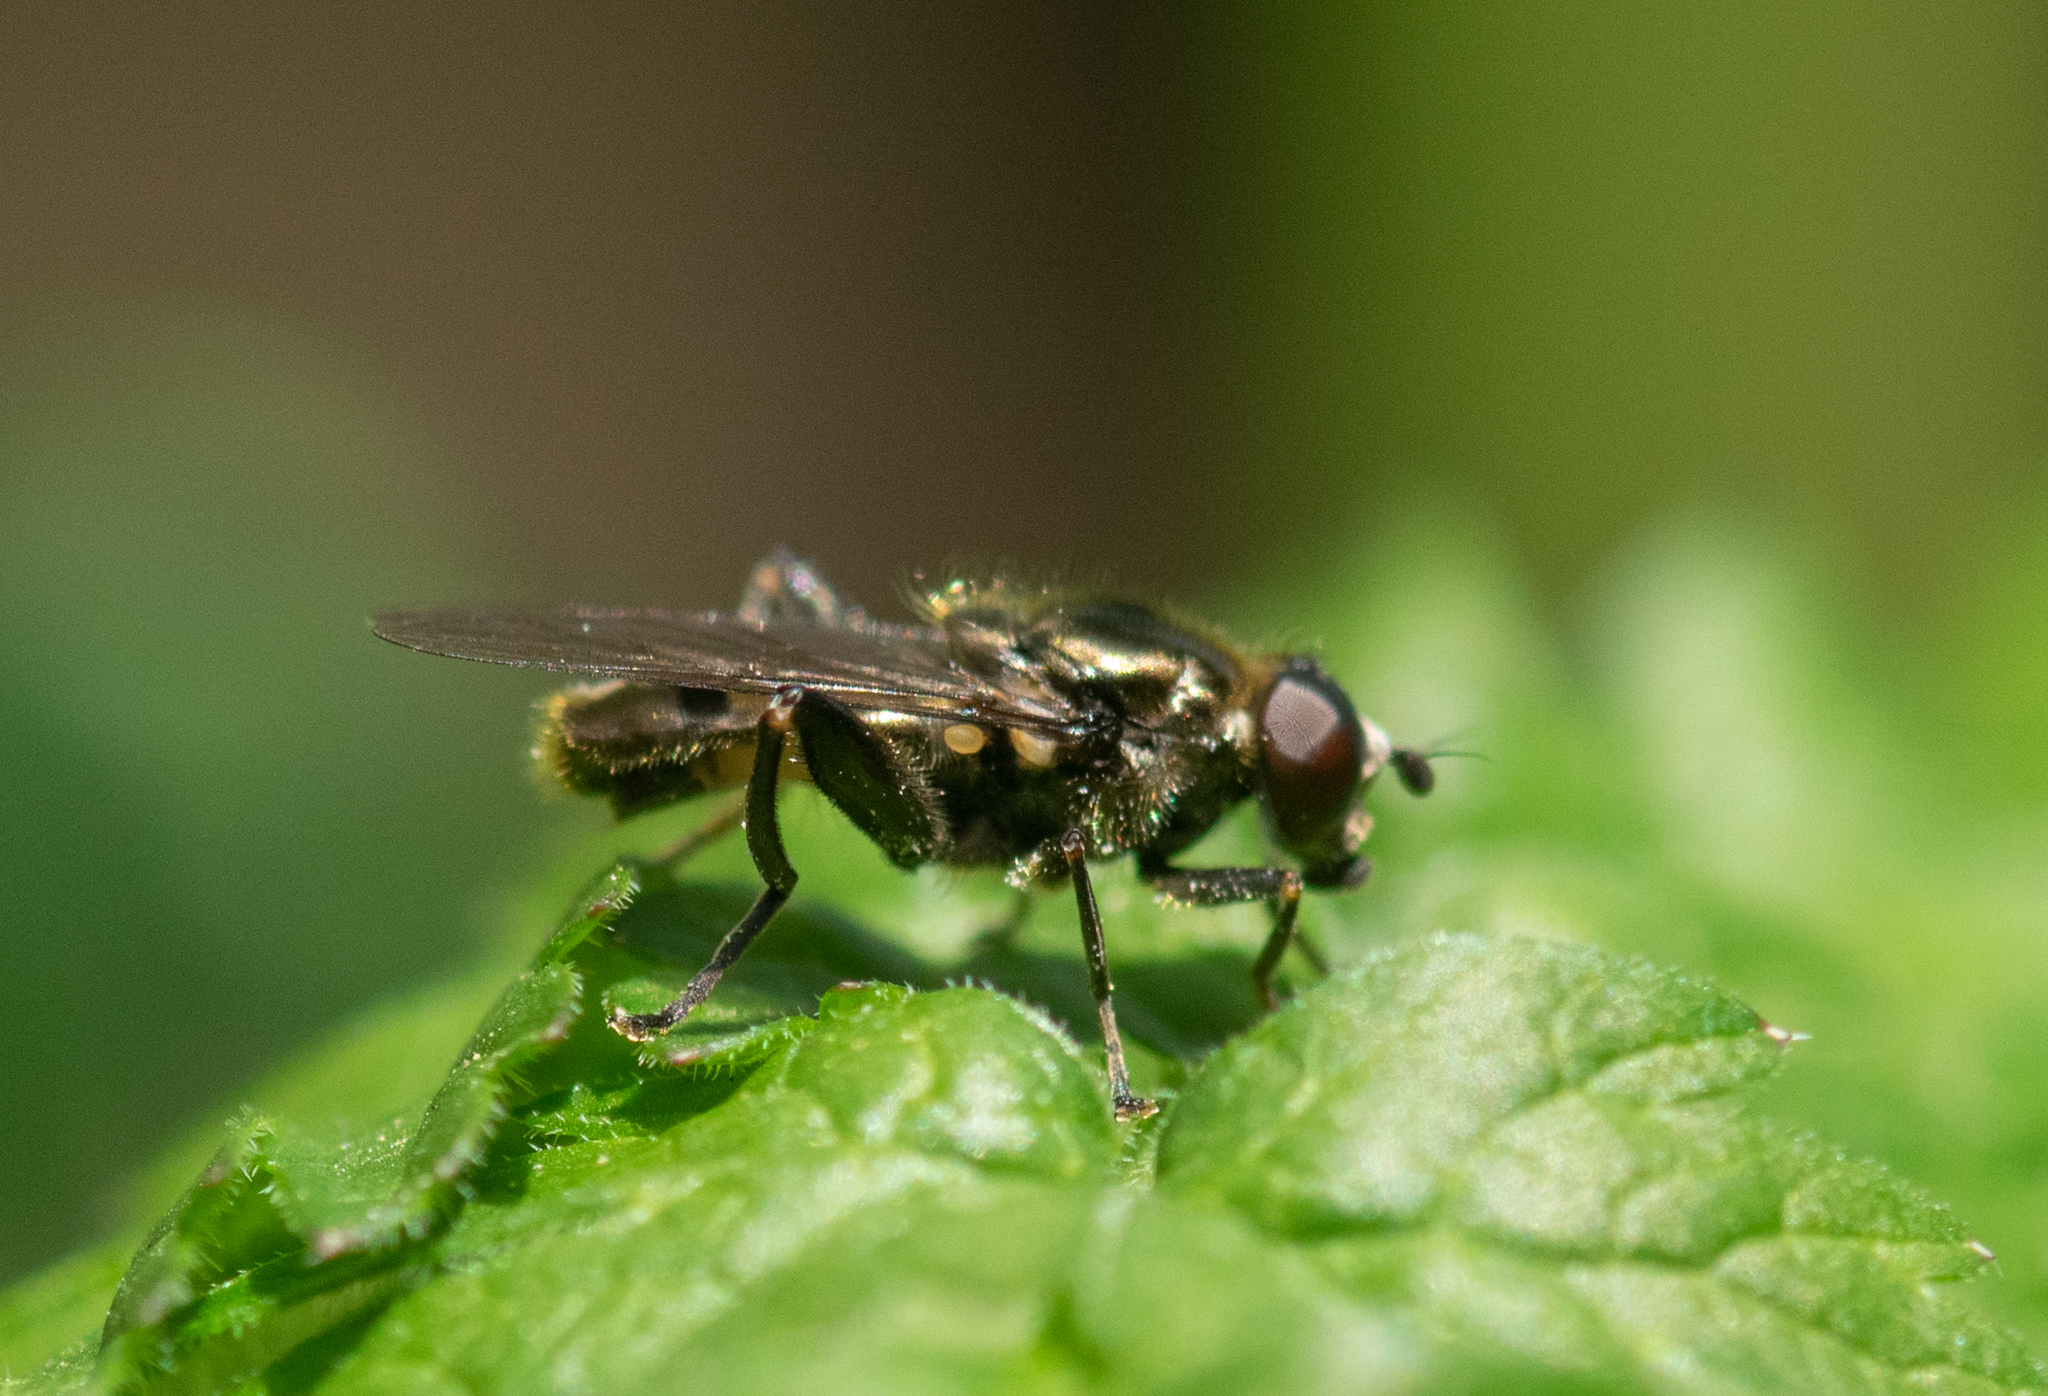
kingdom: Animalia
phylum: Arthropoda
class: Insecta
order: Diptera
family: Syrphidae
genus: Chalcosyrphus
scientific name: Chalcosyrphus nemorum
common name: Dusky-banded forest fly
